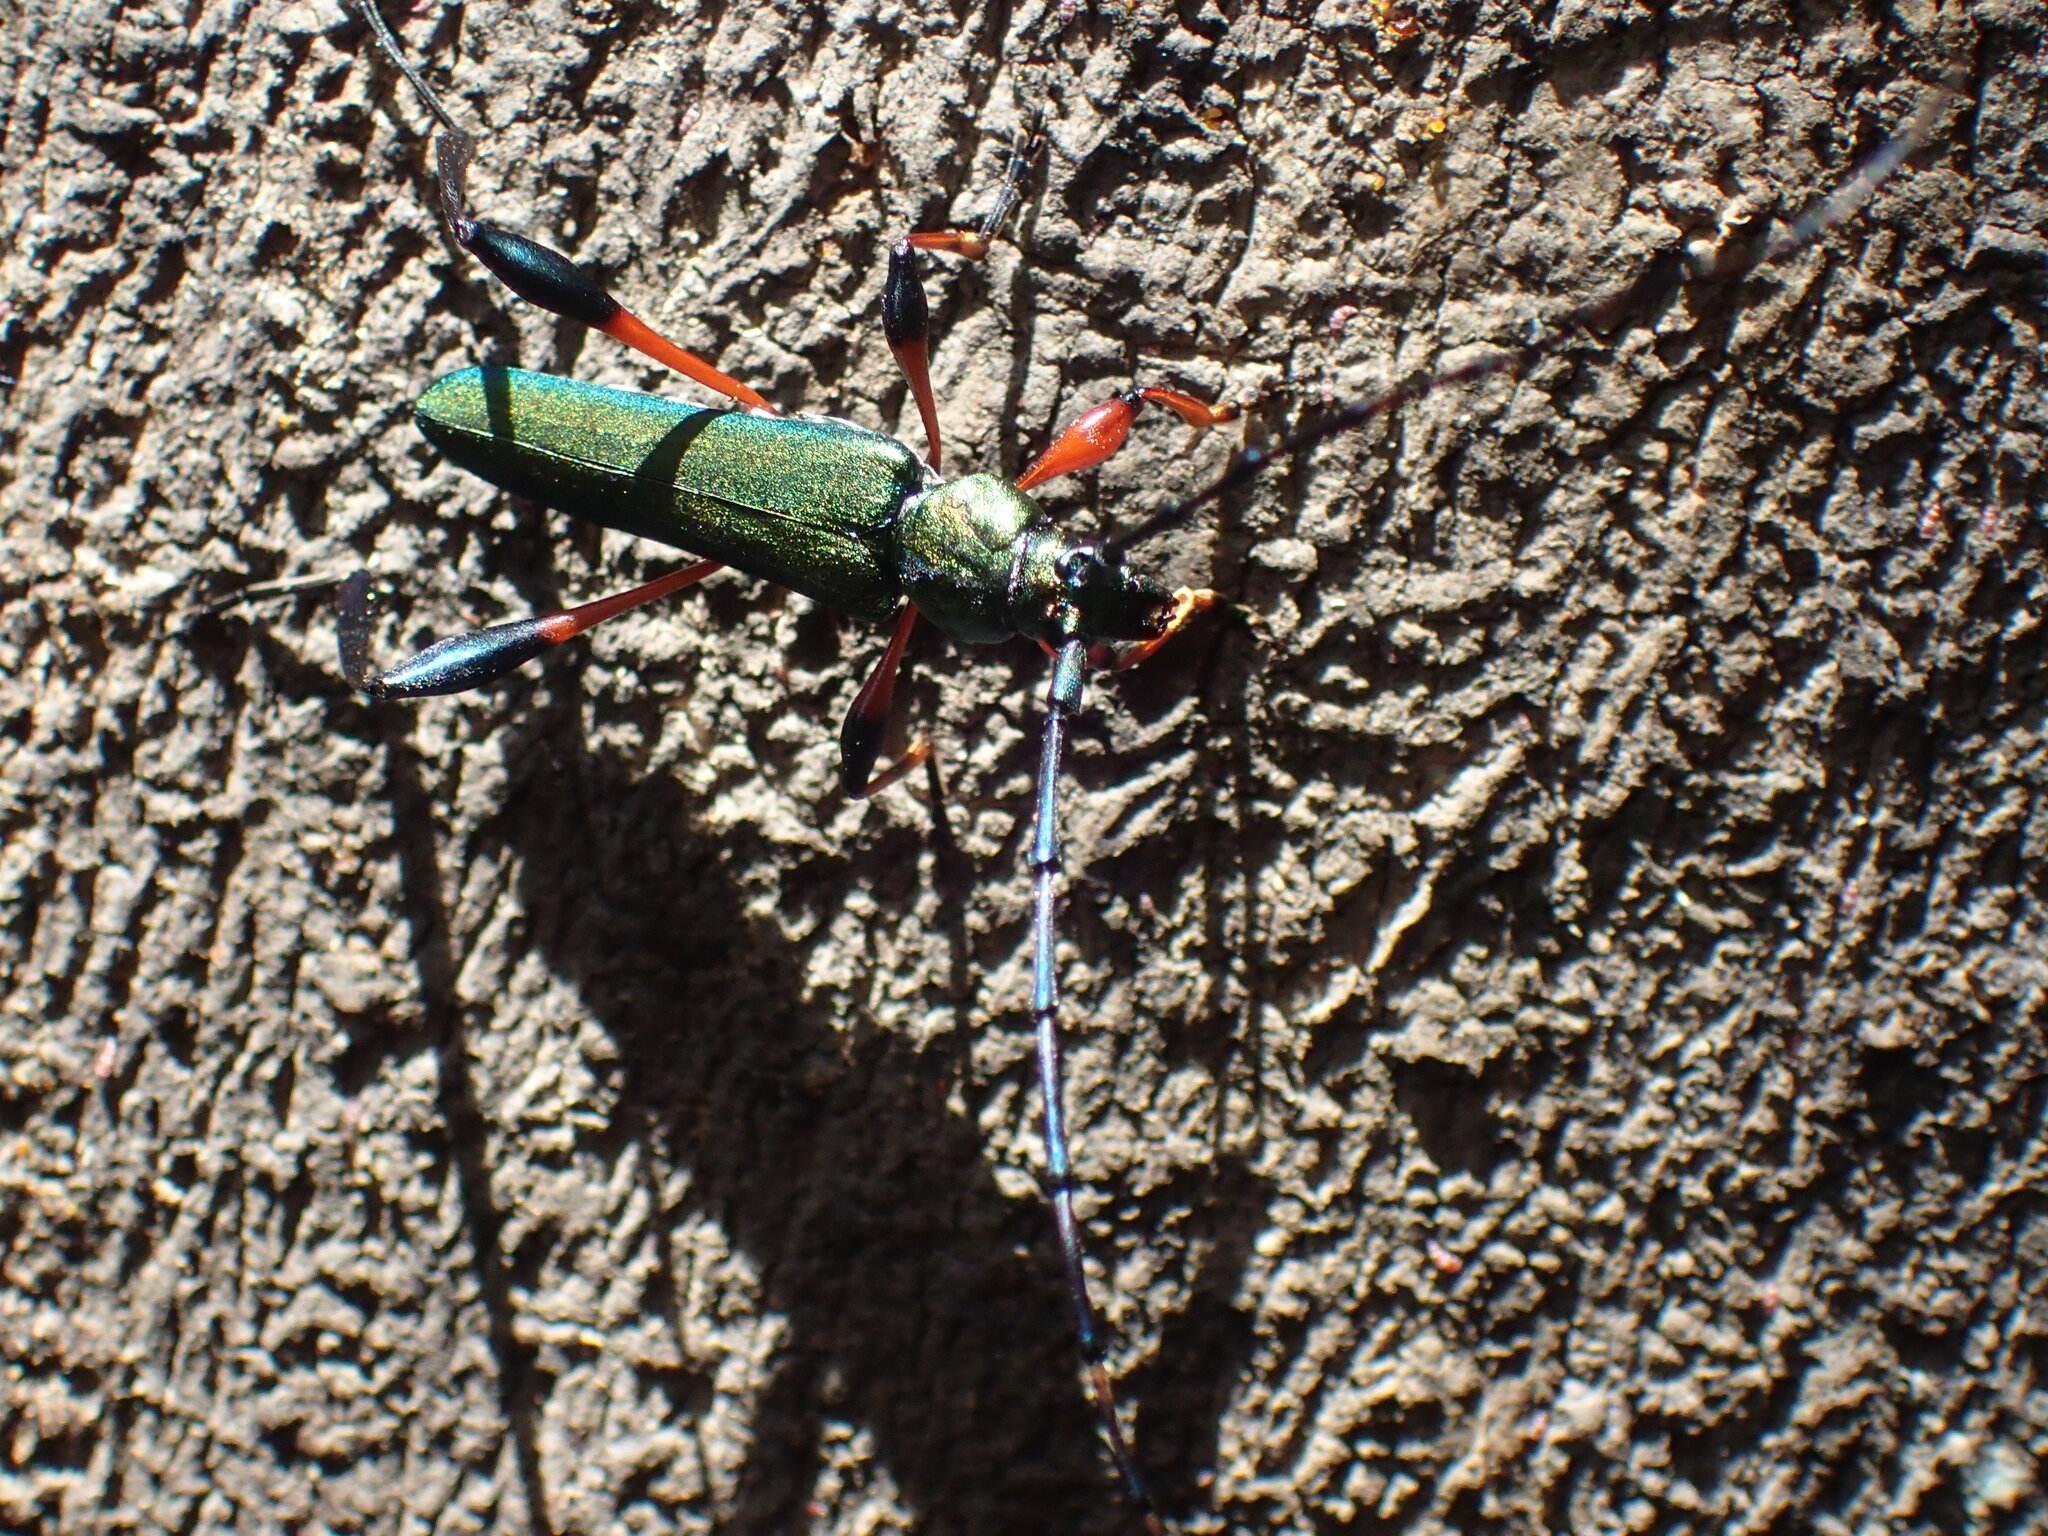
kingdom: Animalia
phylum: Arthropoda
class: Insecta
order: Coleoptera
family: Cerambycidae
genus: Litopus
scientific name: Litopus latipes
